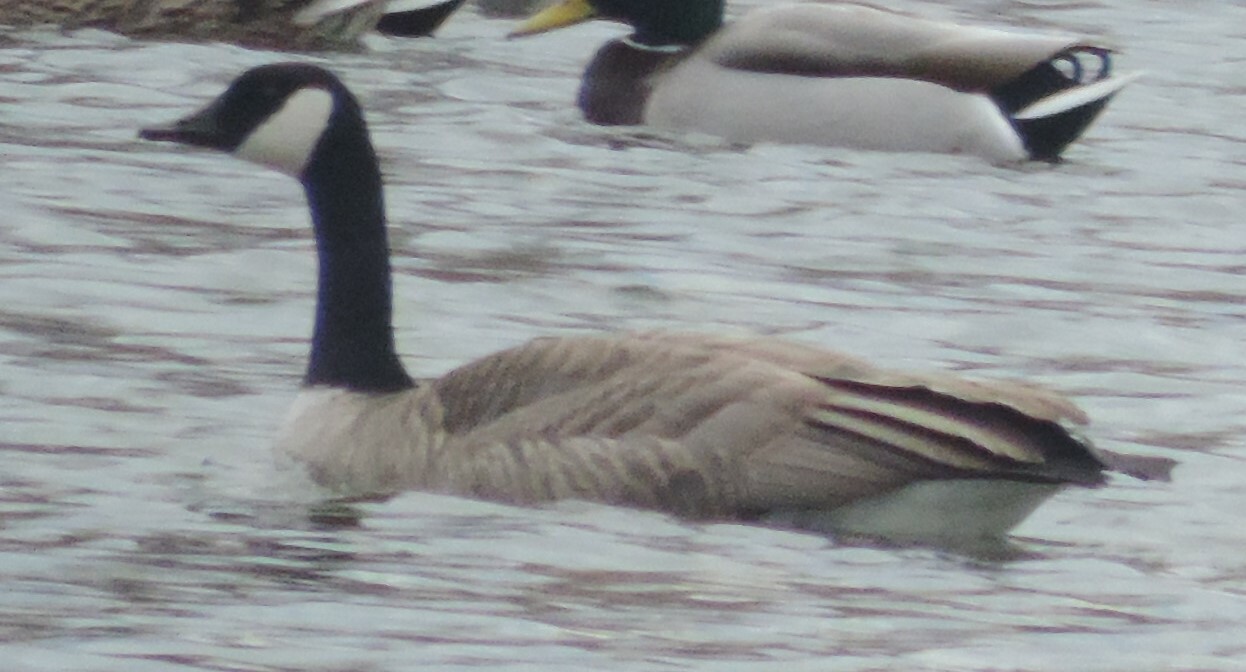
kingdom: Animalia
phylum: Chordata
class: Aves
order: Anseriformes
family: Anatidae
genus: Branta
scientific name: Branta canadensis
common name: Canada goose
